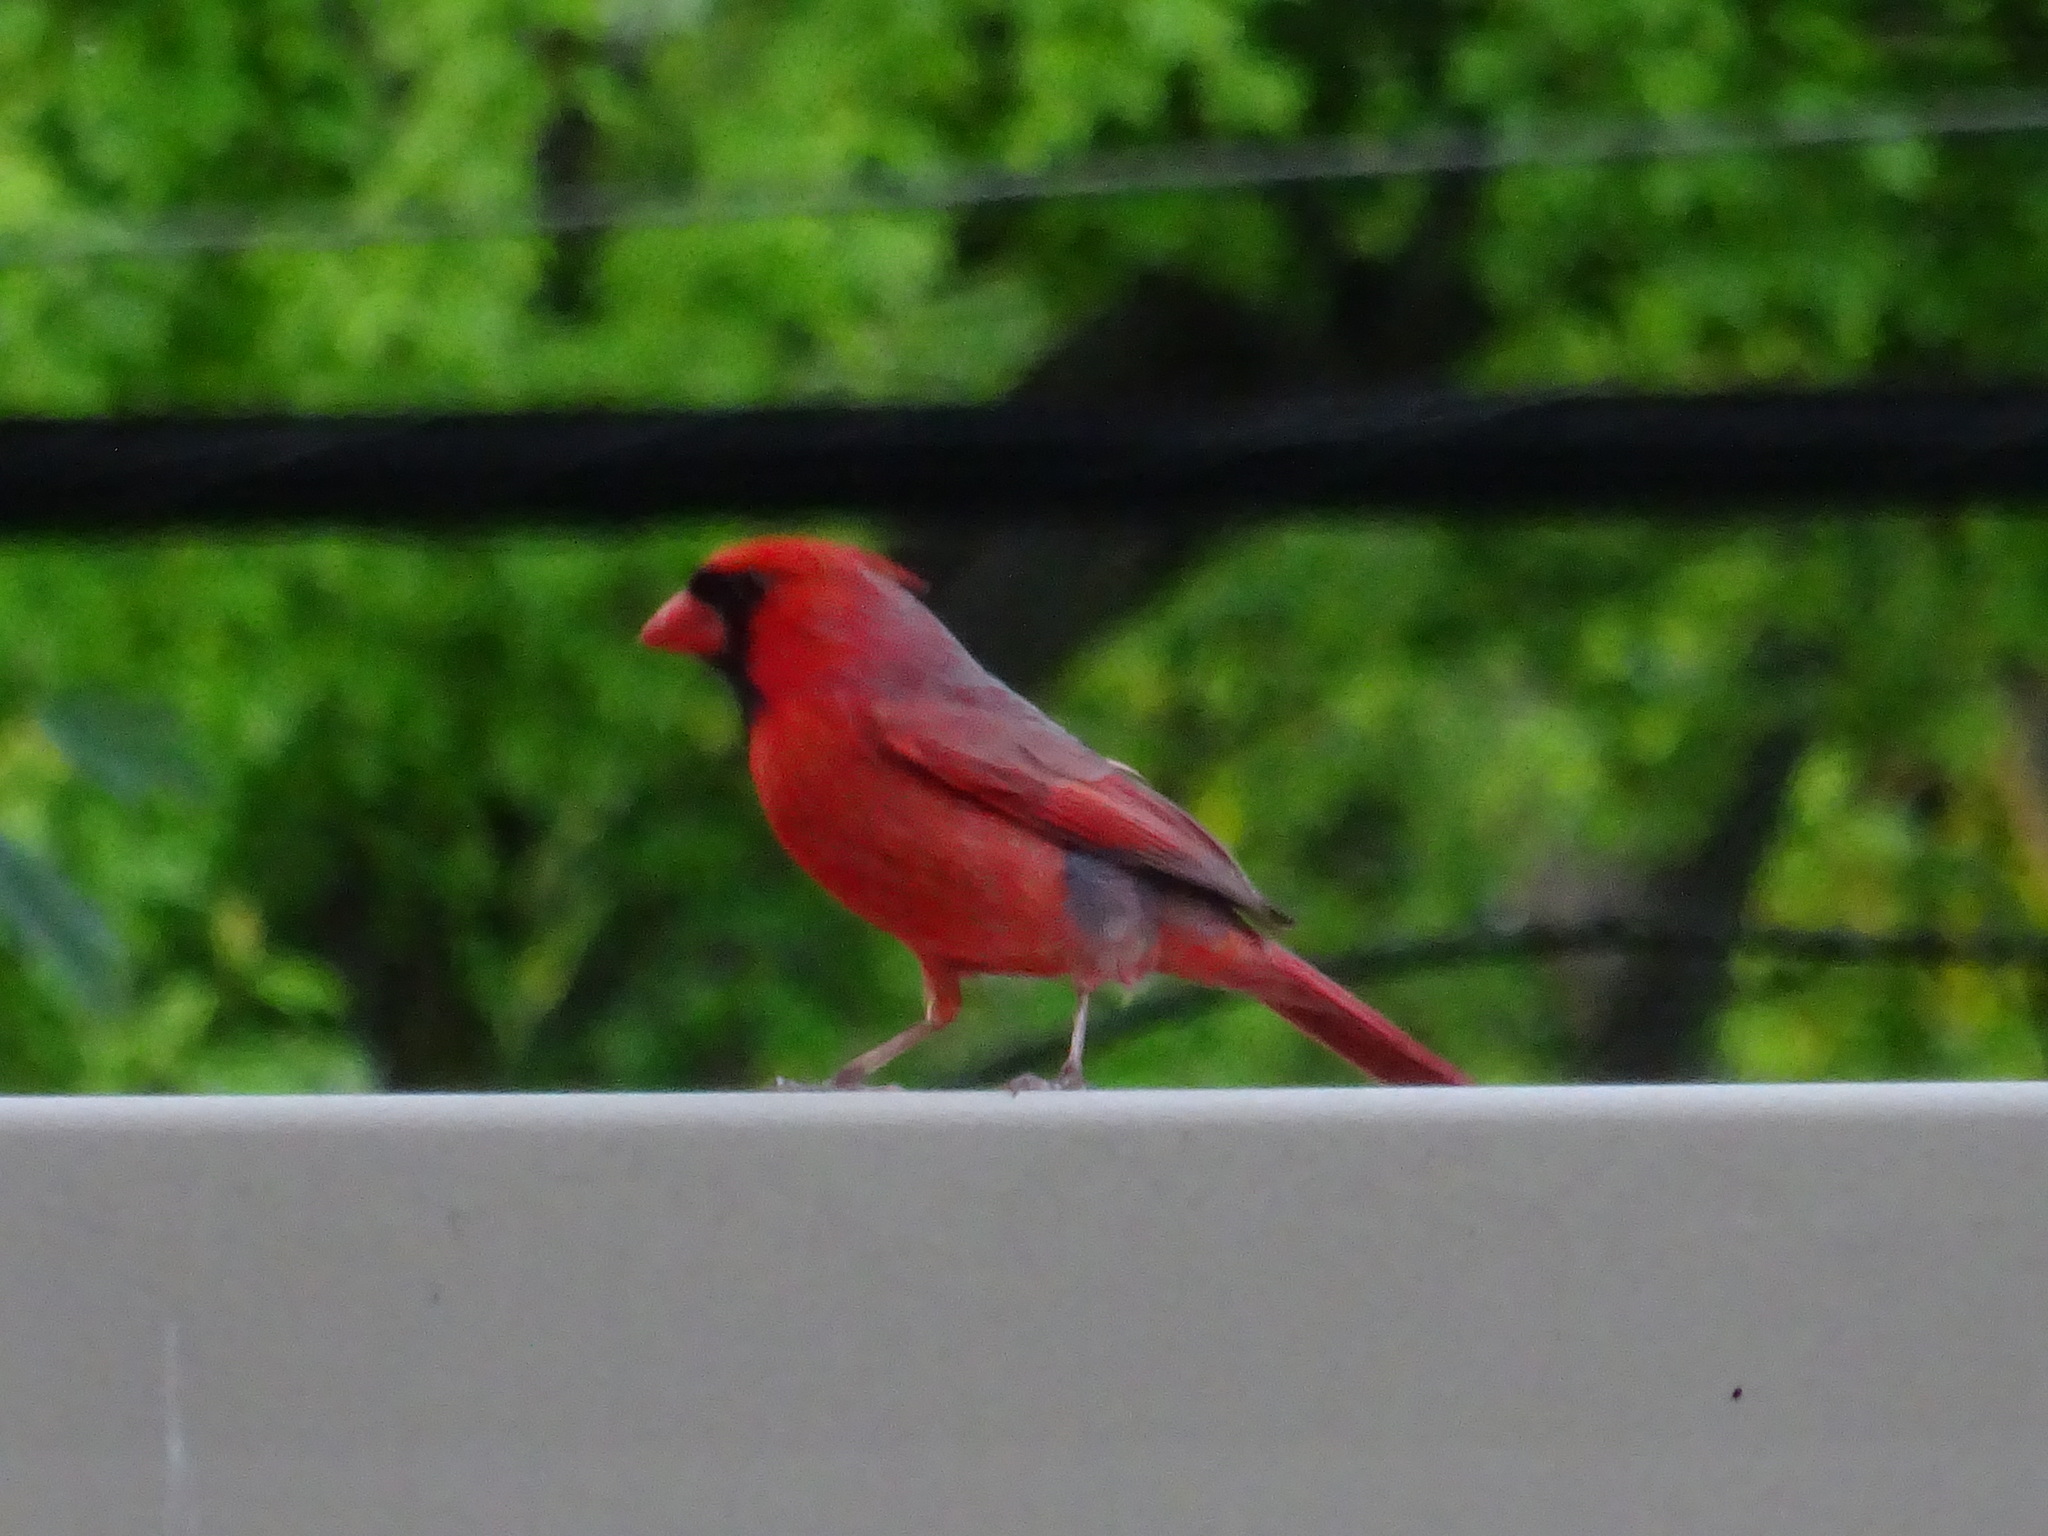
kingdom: Animalia
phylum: Chordata
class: Aves
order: Passeriformes
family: Cardinalidae
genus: Cardinalis
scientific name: Cardinalis cardinalis
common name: Northern cardinal
